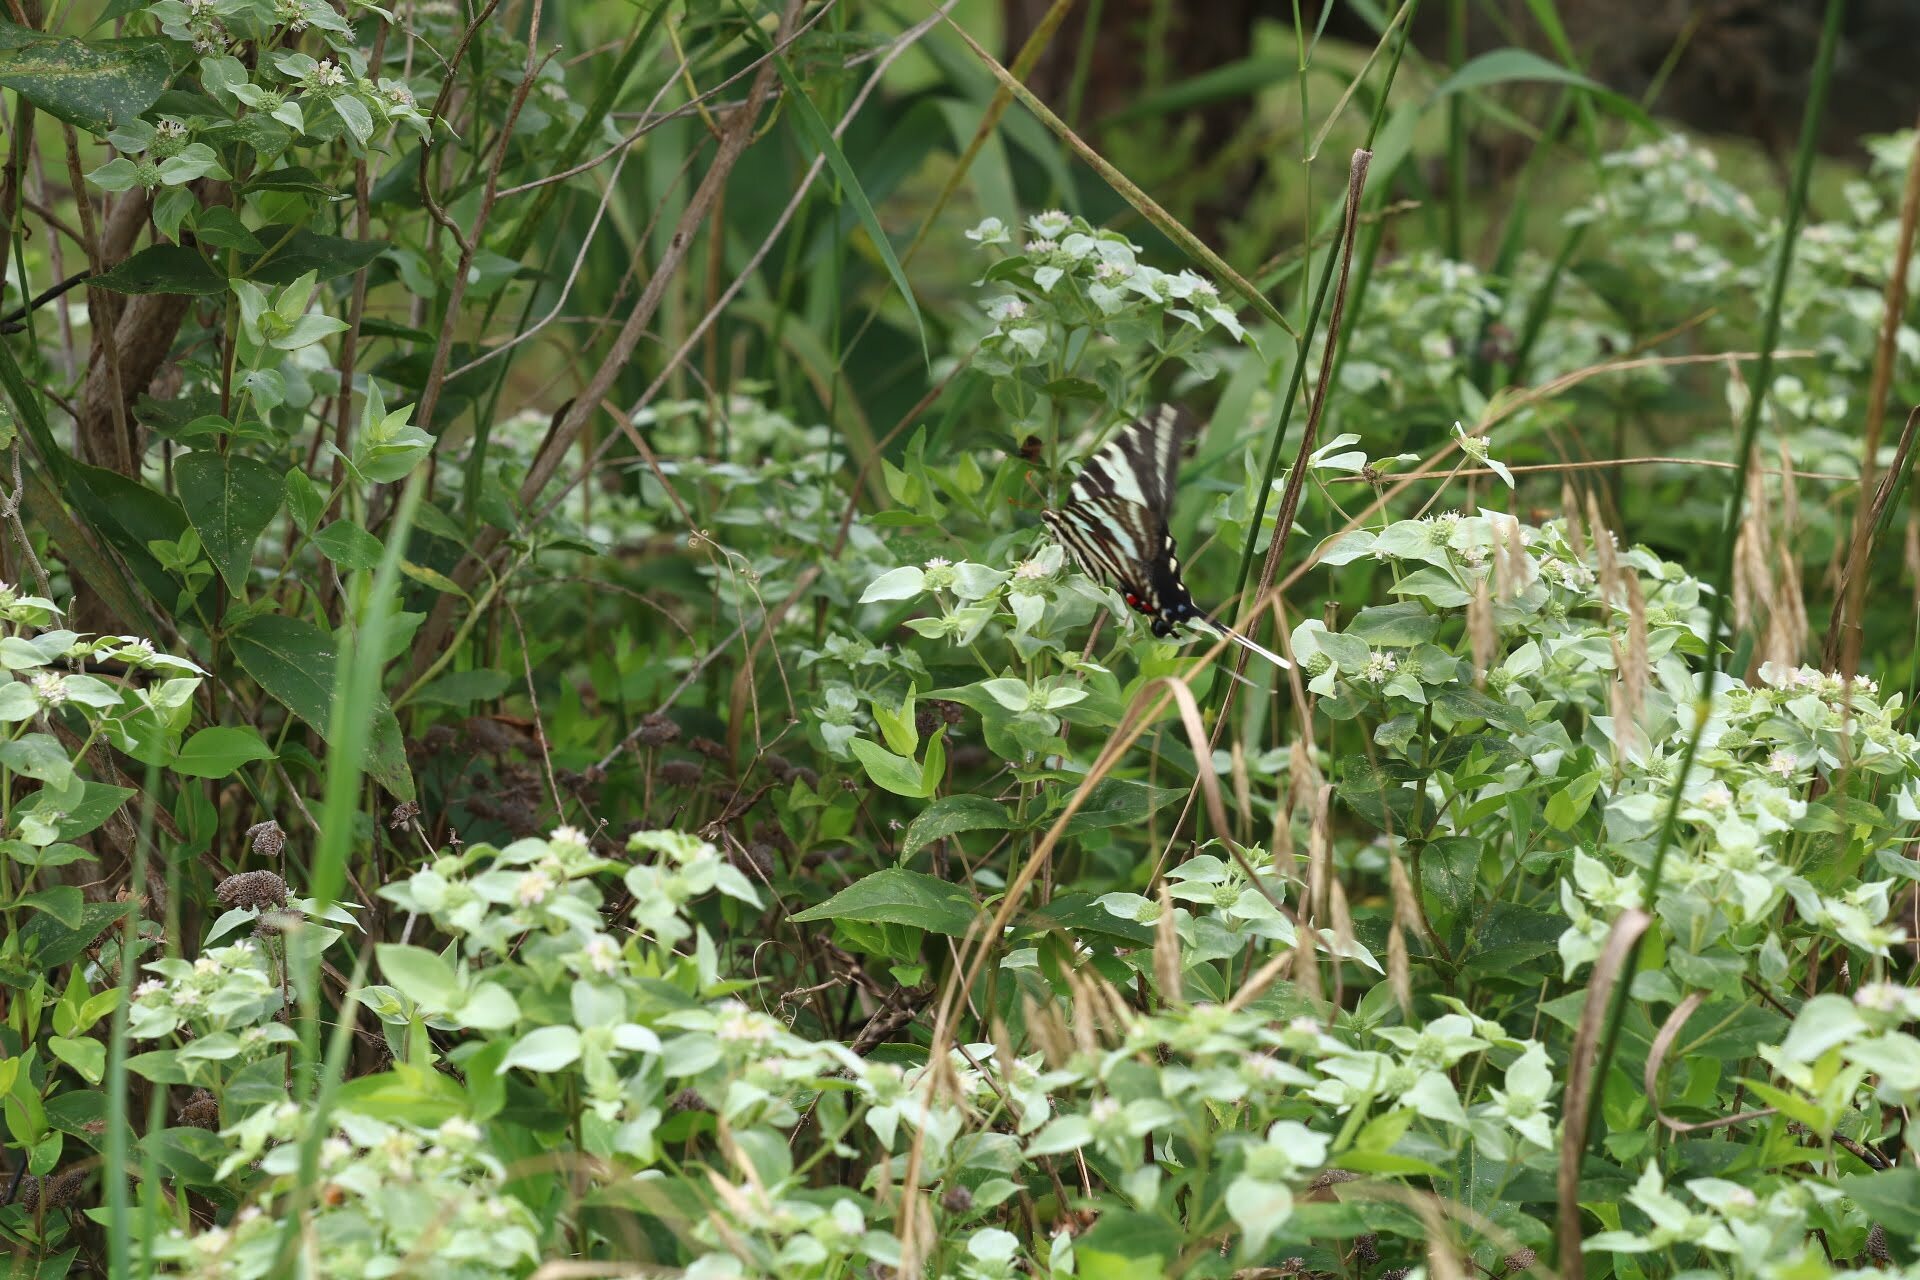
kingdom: Animalia
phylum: Arthropoda
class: Insecta
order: Lepidoptera
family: Papilionidae
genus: Protographium
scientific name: Protographium marcellus
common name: Zebra swallowtail
